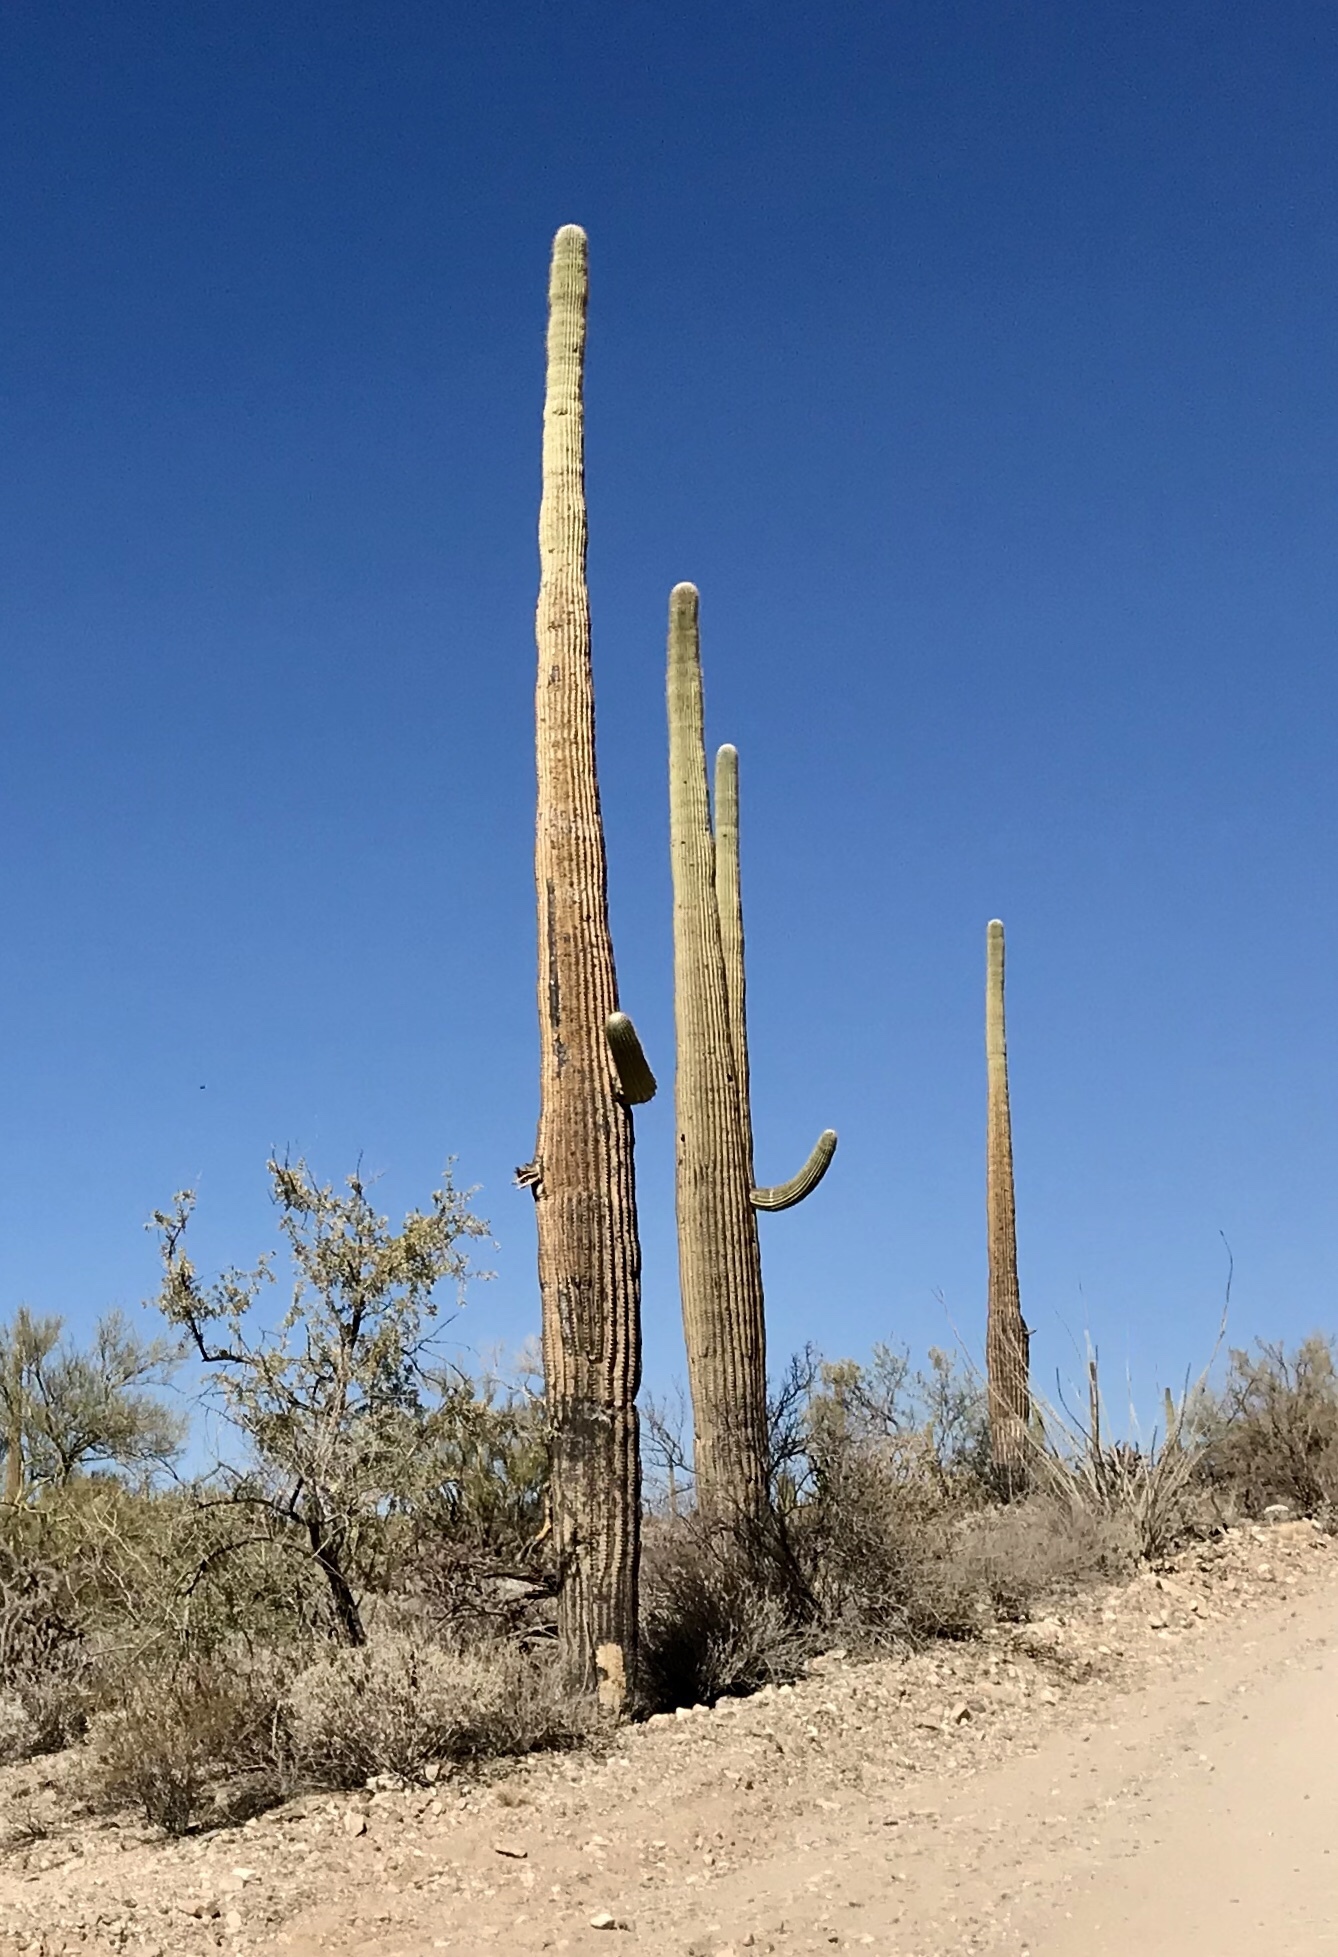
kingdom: Plantae
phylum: Tracheophyta
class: Magnoliopsida
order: Caryophyllales
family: Cactaceae
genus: Carnegiea
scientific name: Carnegiea gigantea
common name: Saguaro
